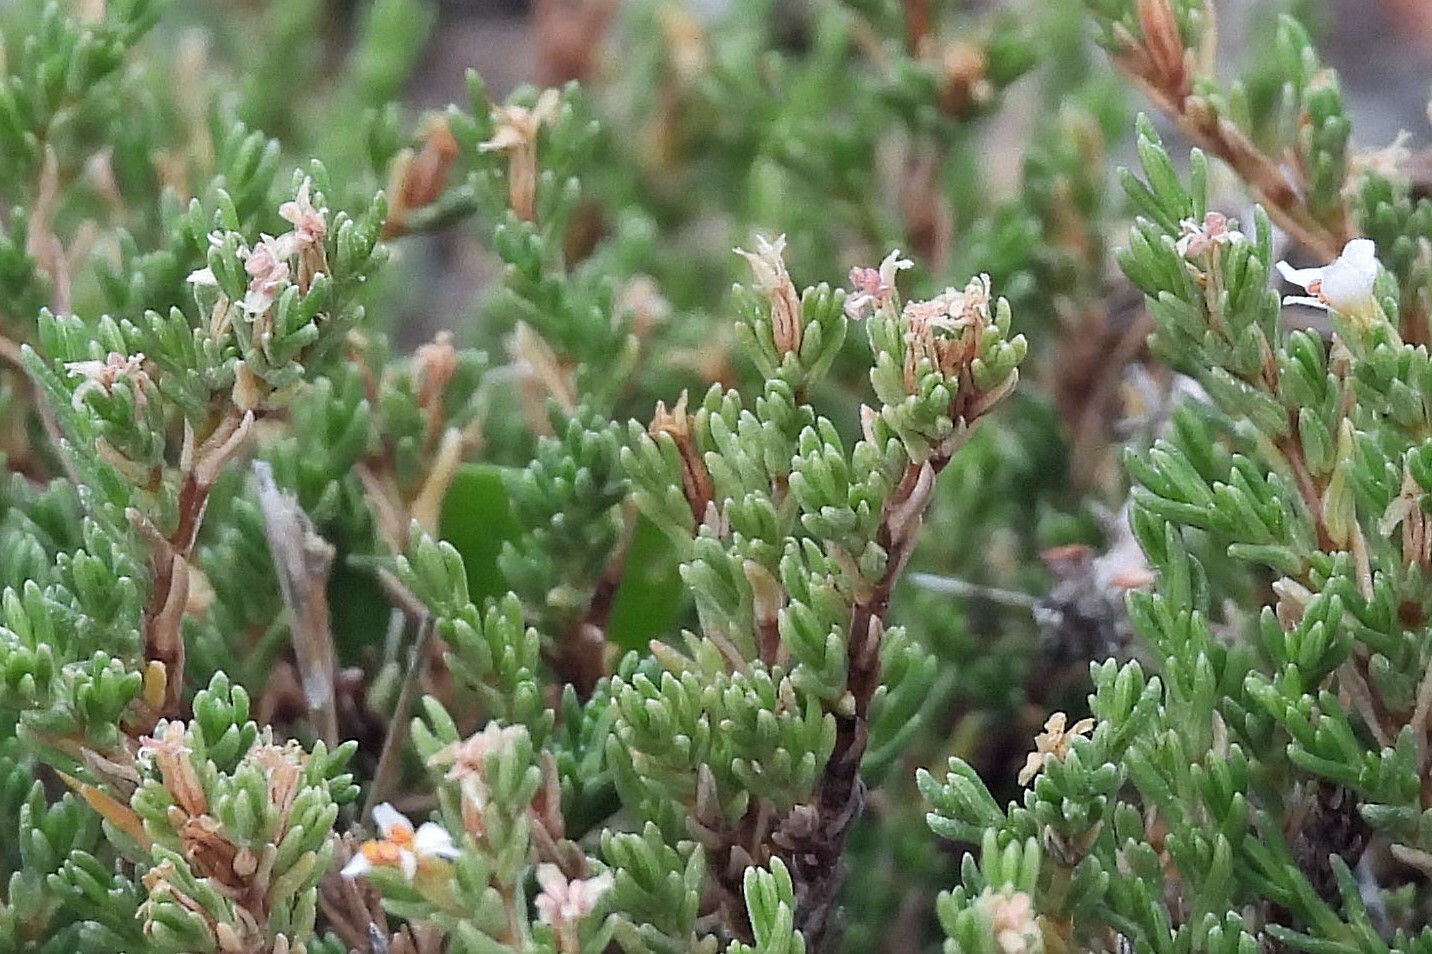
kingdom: Plantae
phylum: Tracheophyta
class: Magnoliopsida
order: Caryophyllales
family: Frankeniaceae
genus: Frankenia
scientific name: Frankenia juniperoides
